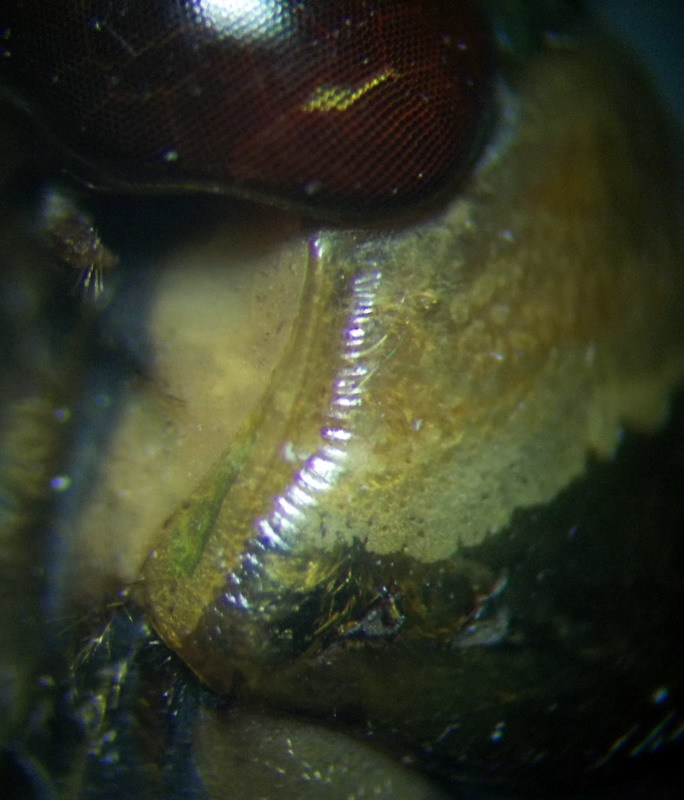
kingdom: Animalia
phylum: Arthropoda
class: Insecta
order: Hemiptera
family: Notonectidae
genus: Notonecta
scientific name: Notonecta glauca
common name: Common water-boatman
